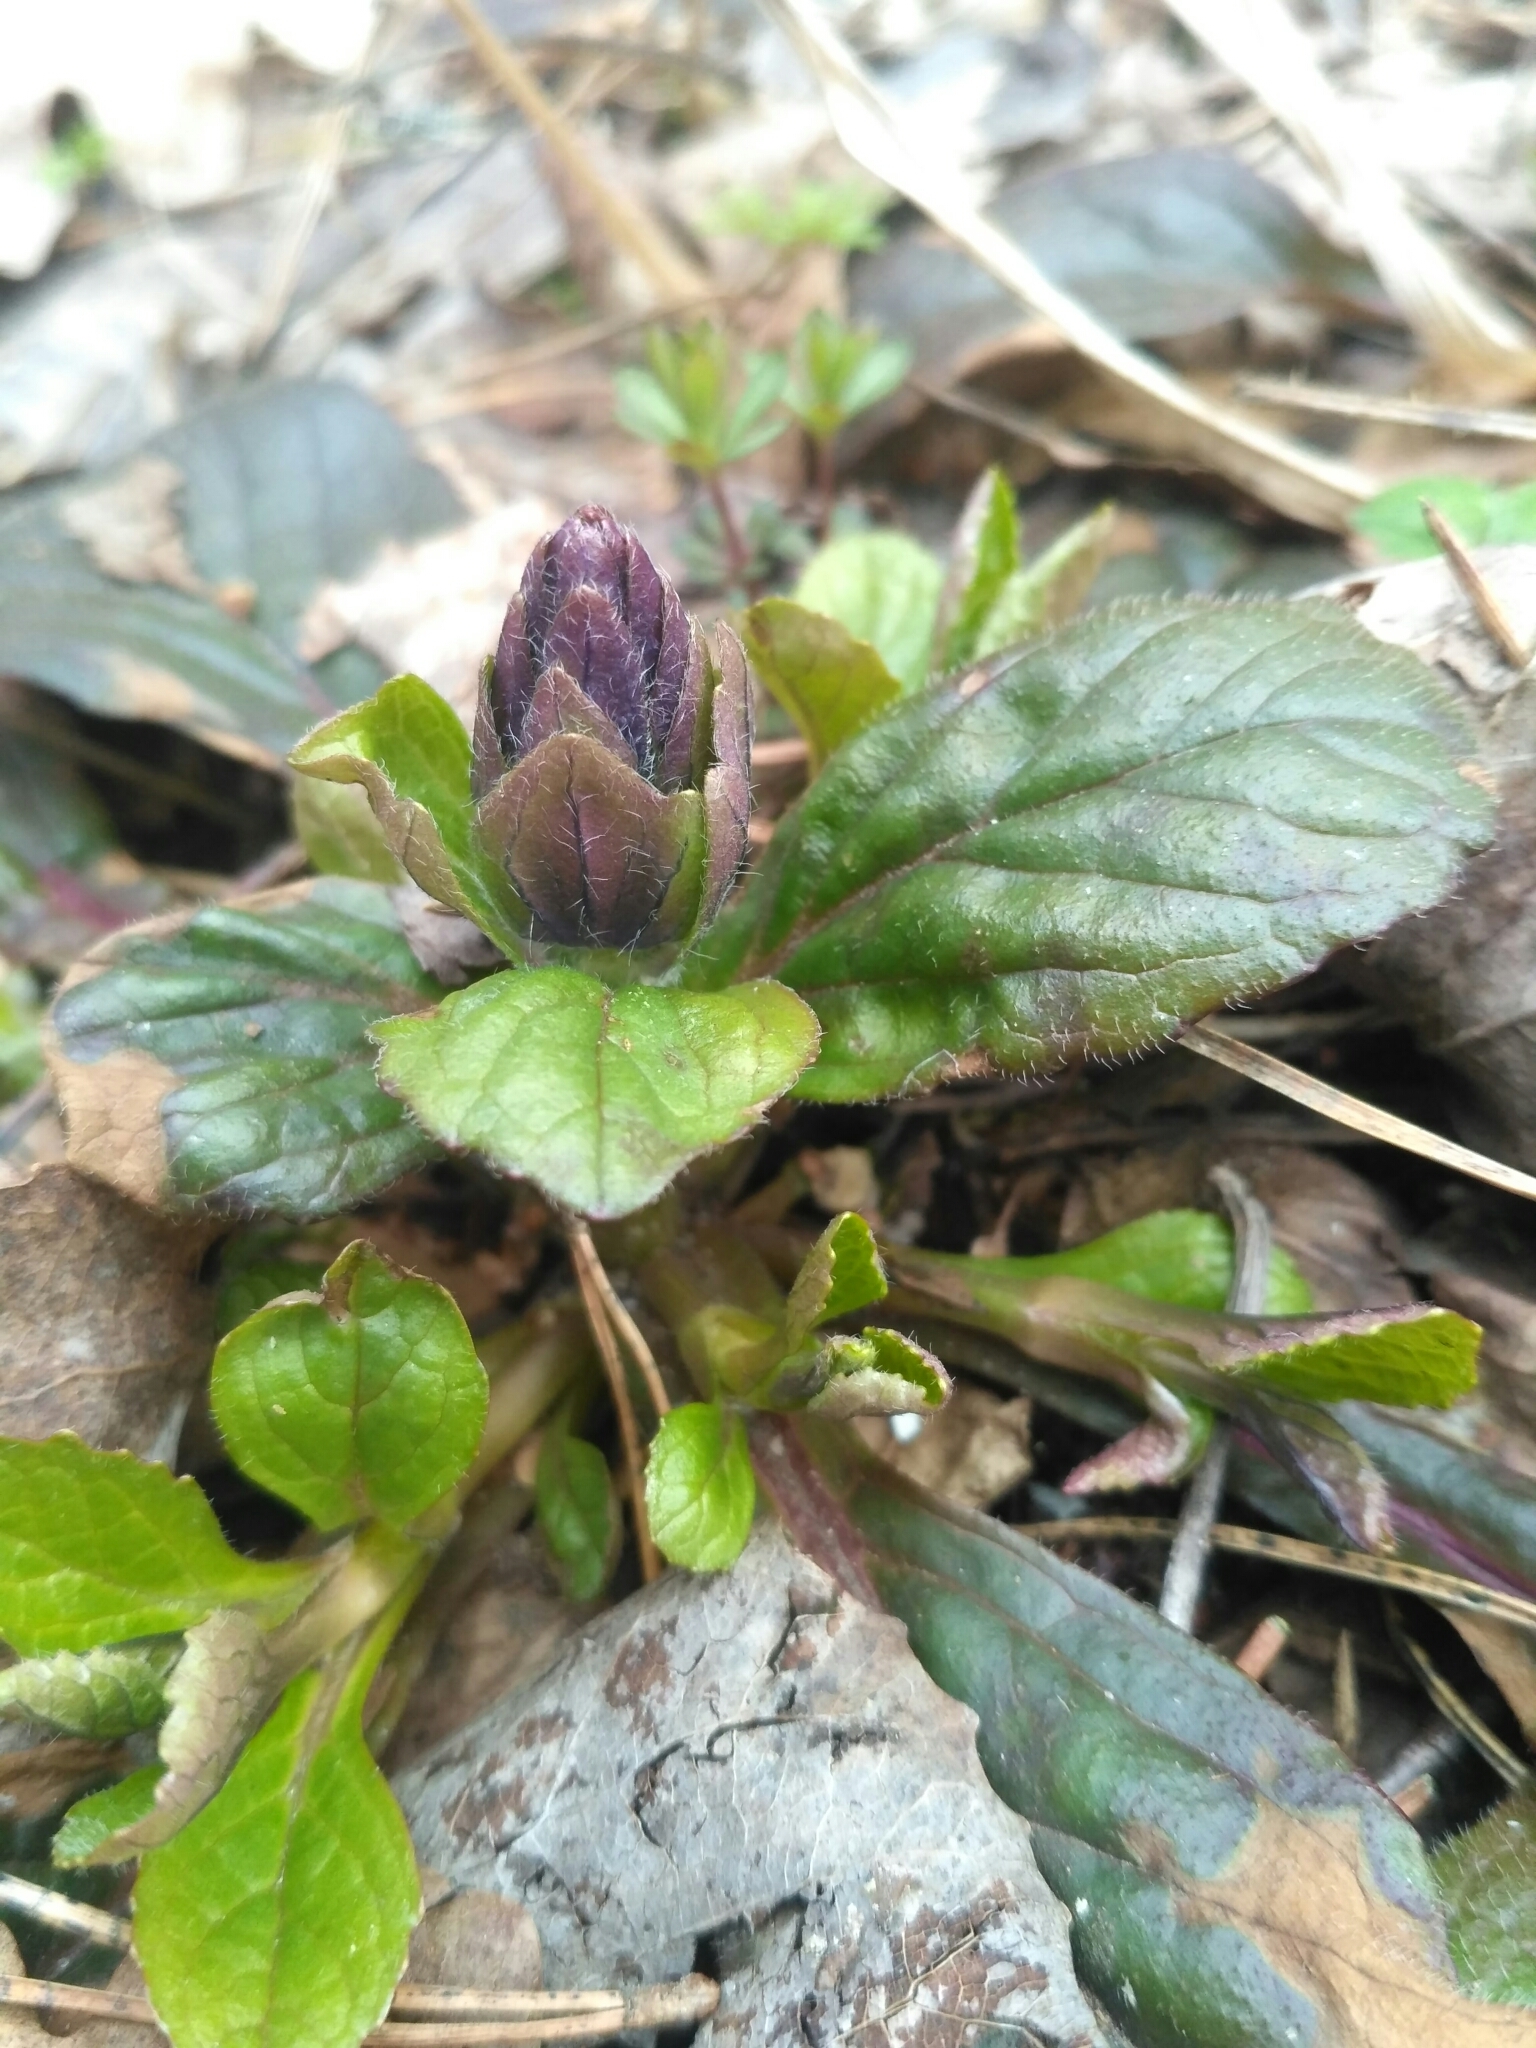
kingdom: Plantae
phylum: Tracheophyta
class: Magnoliopsida
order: Lamiales
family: Lamiaceae
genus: Ajuga
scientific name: Ajuga reptans
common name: Bugle
